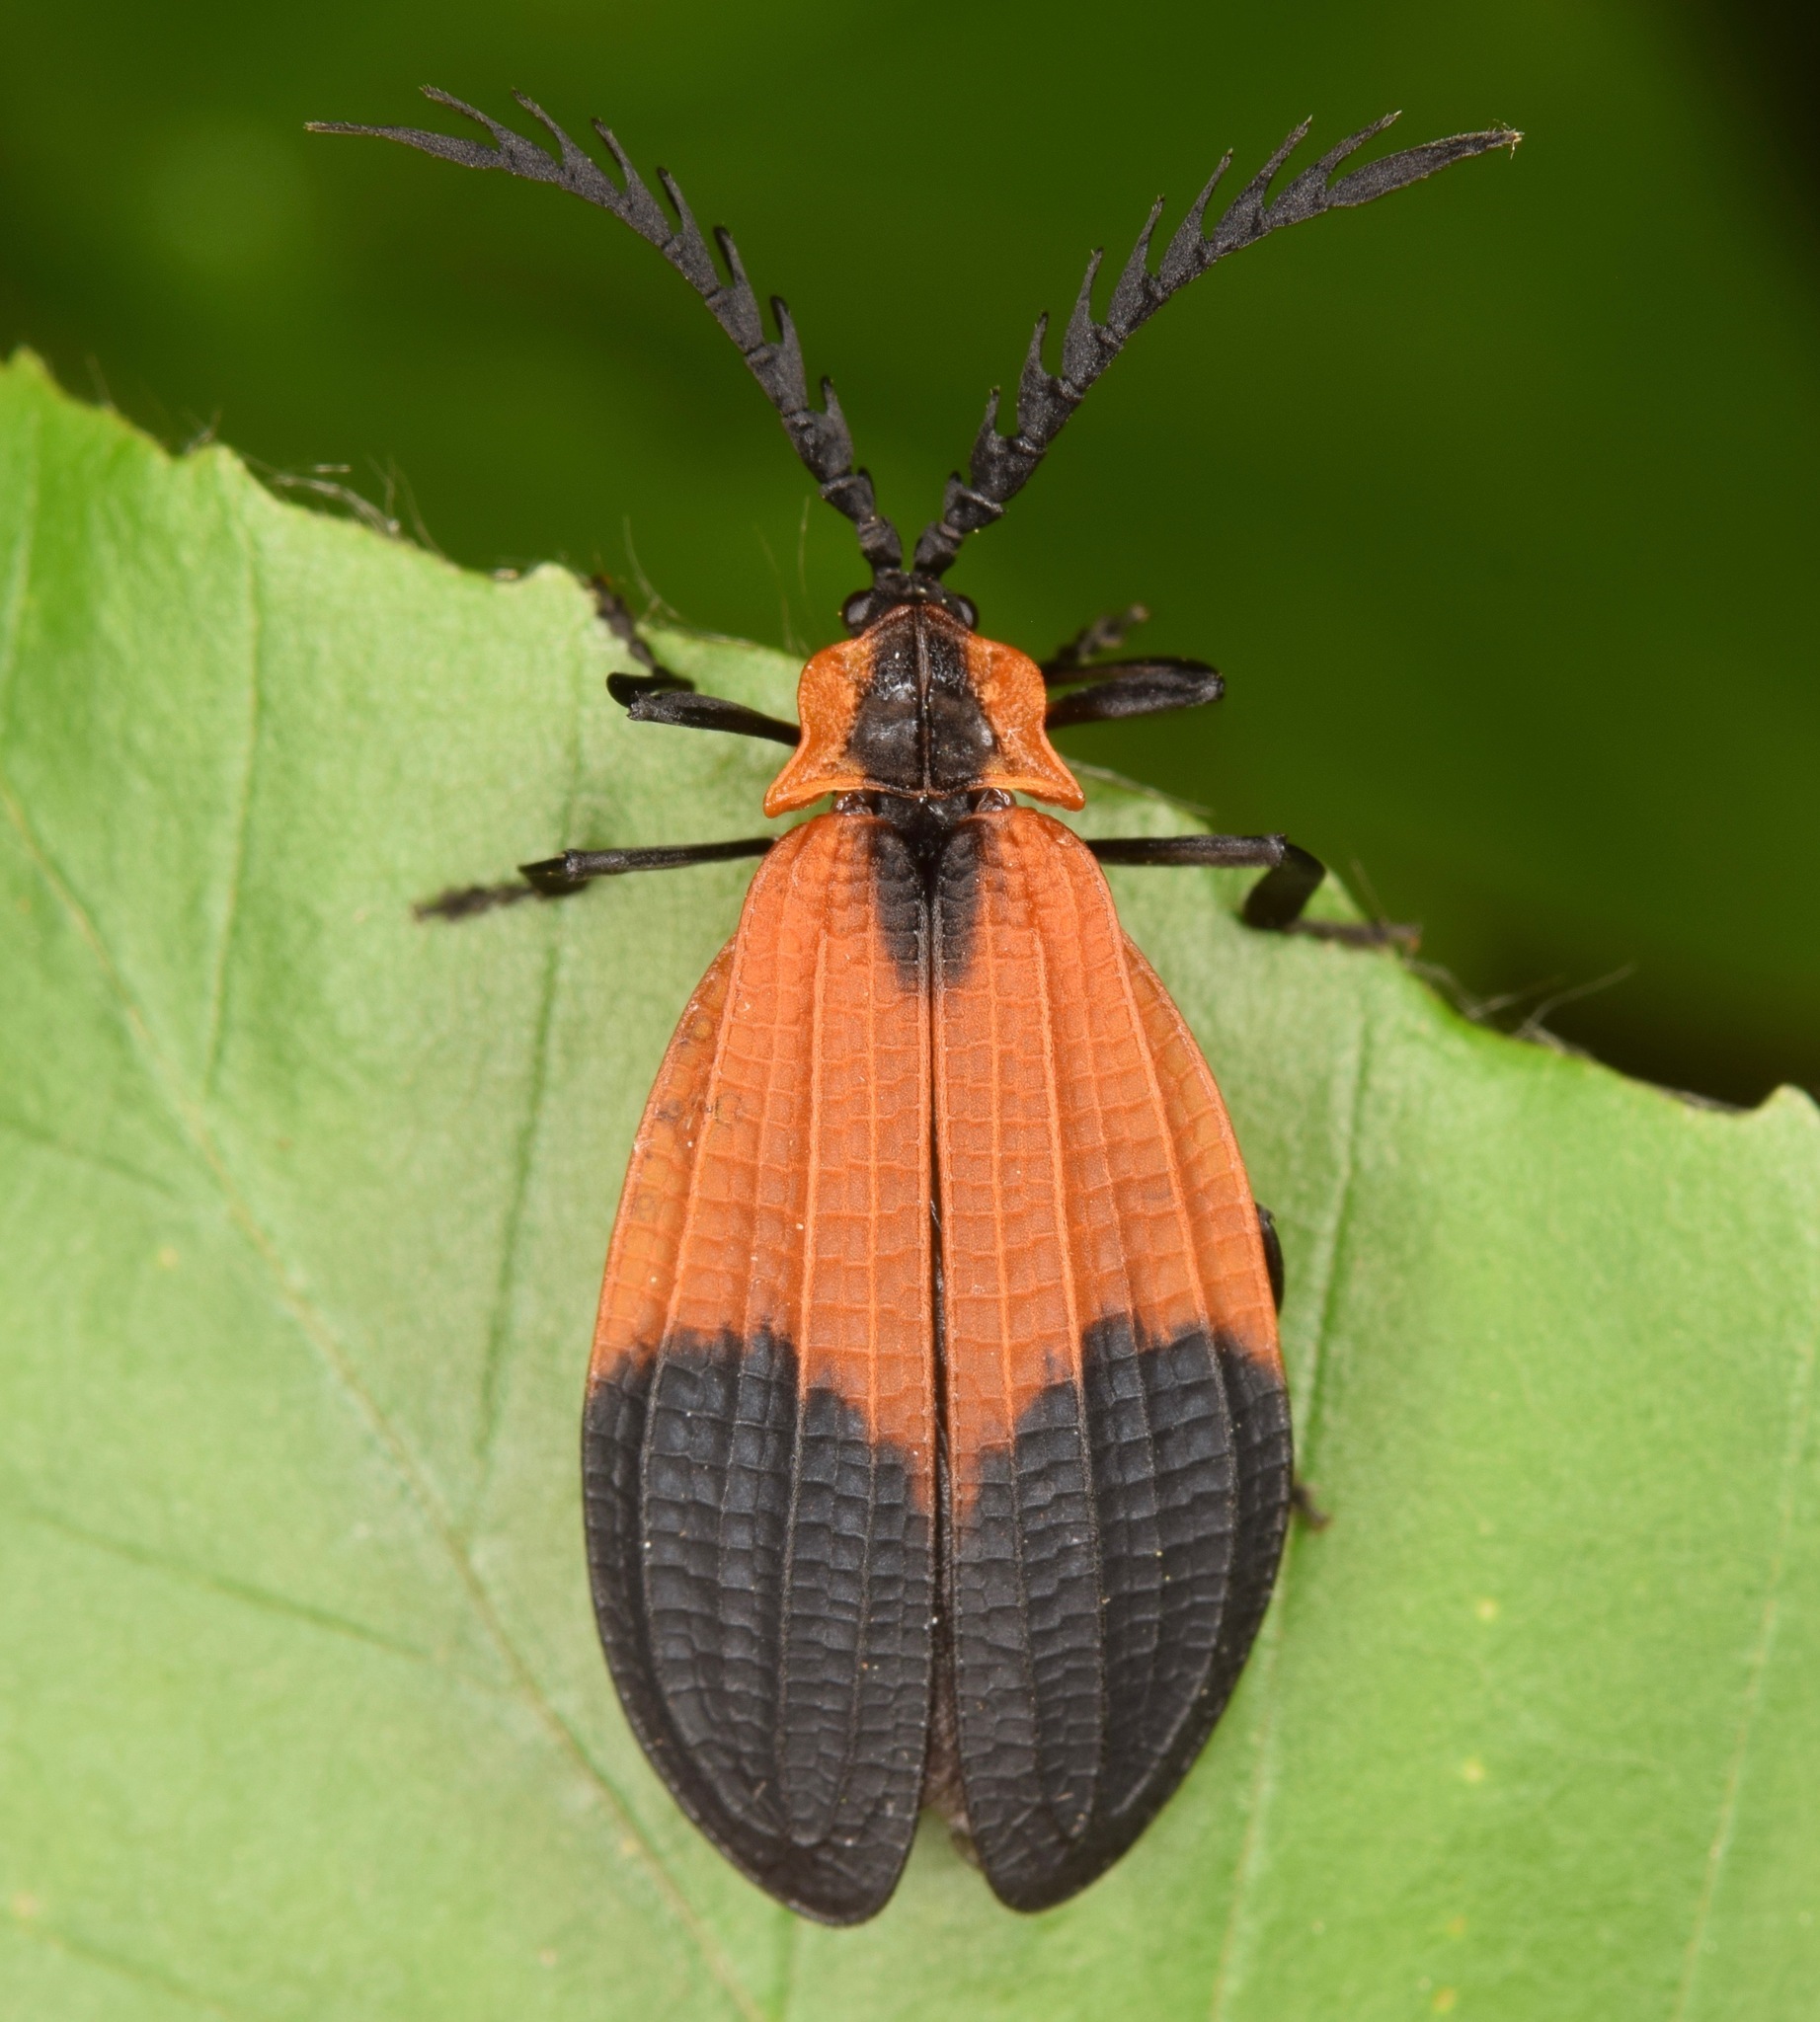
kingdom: Animalia
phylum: Arthropoda
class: Insecta
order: Coleoptera
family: Lycidae
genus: Caenia
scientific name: Caenia dimidiata
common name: Terminal net-winged beetle
